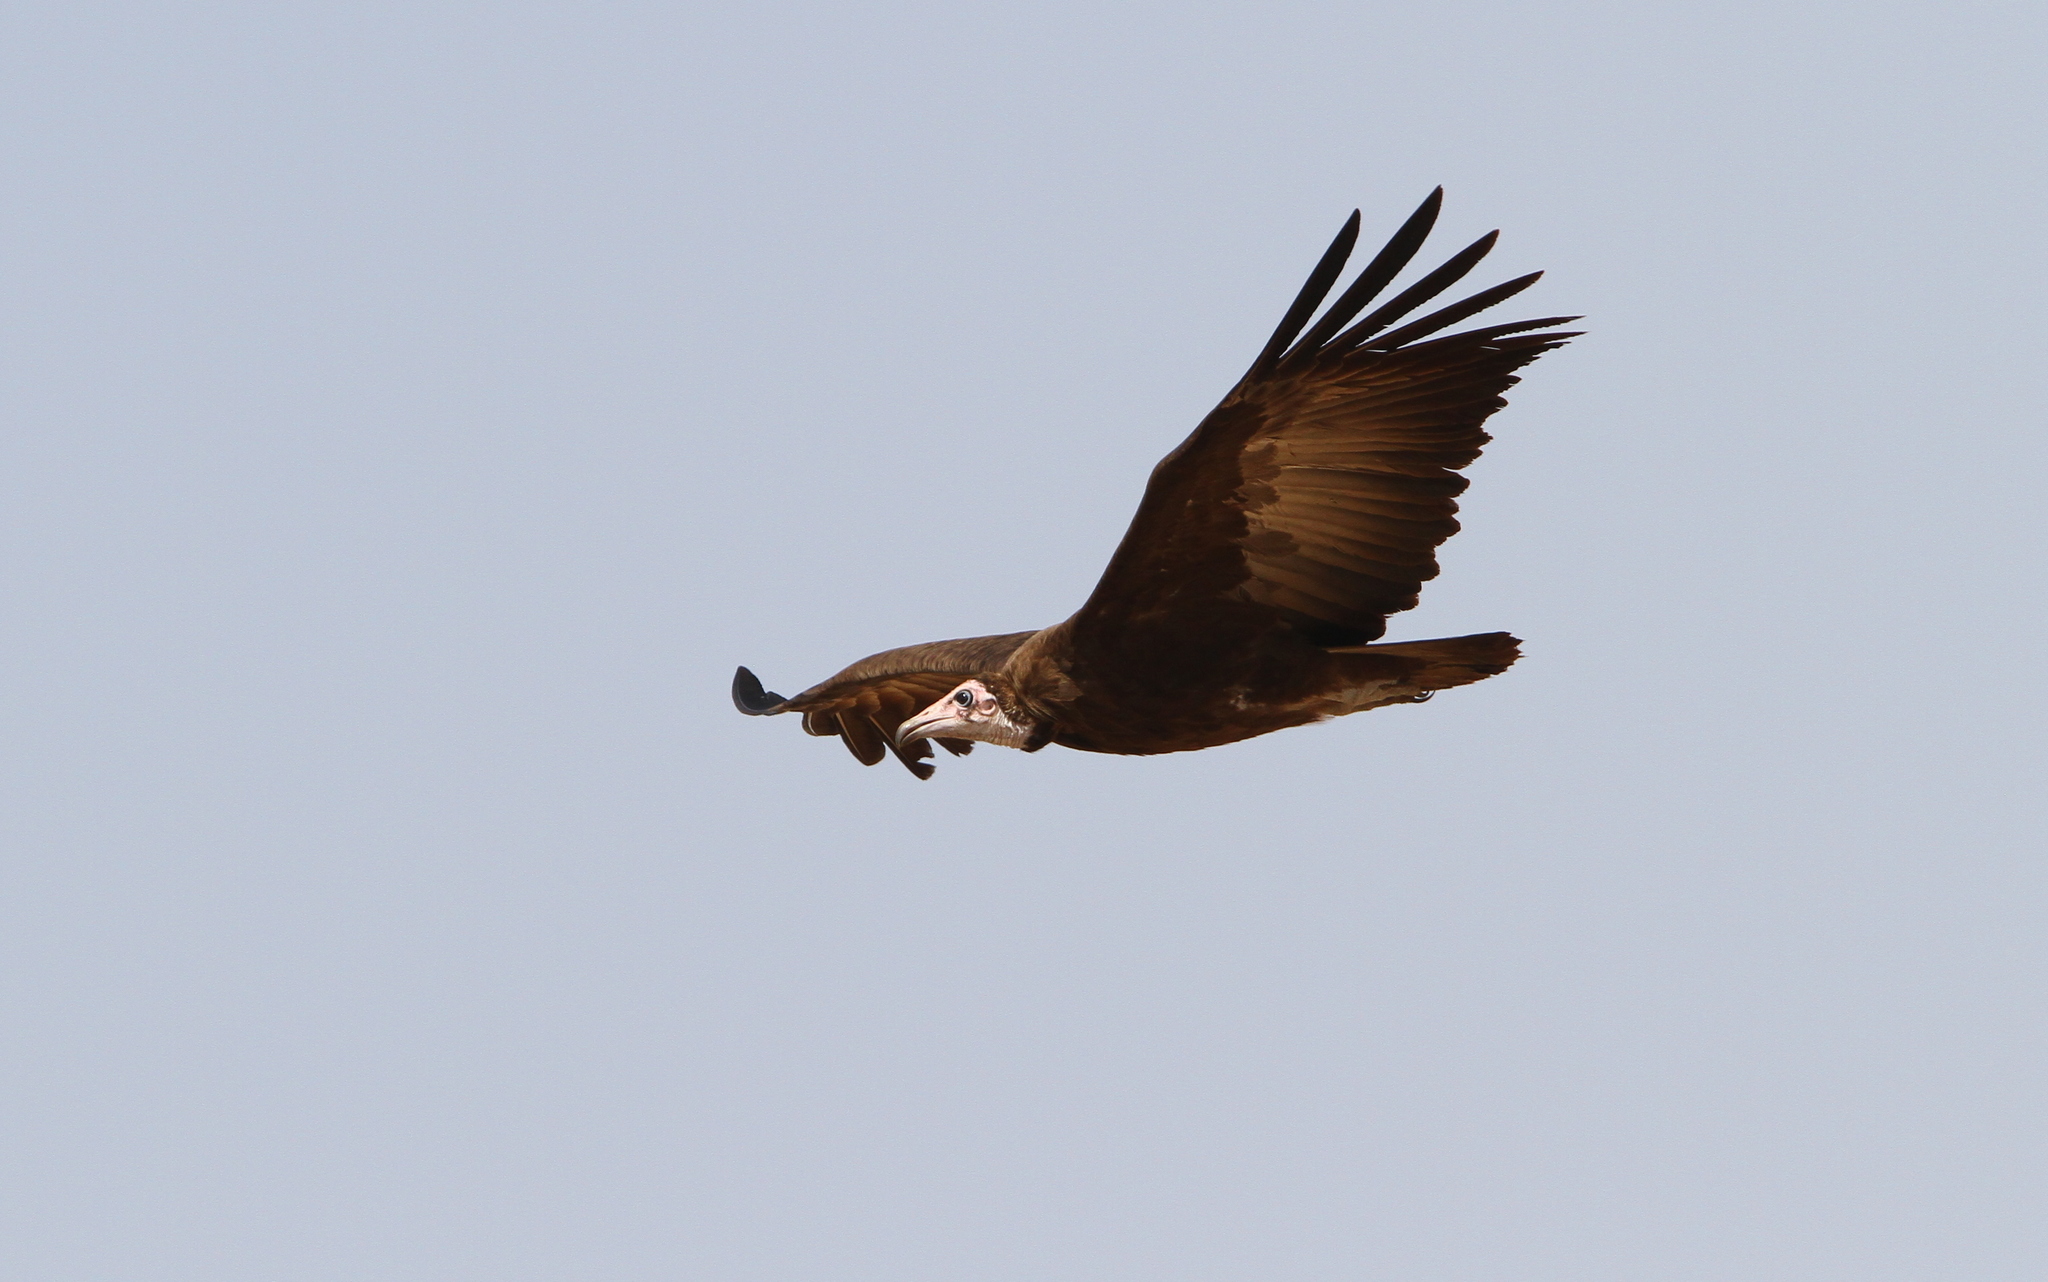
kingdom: Animalia
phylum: Chordata
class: Aves
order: Accipitriformes
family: Accipitridae
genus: Necrosyrtes
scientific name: Necrosyrtes monachus
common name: Hooded vulture
